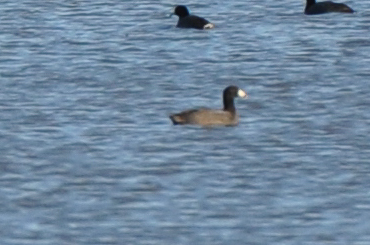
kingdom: Animalia
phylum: Chordata
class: Aves
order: Gruiformes
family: Rallidae
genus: Fulica
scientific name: Fulica americana
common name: American coot
